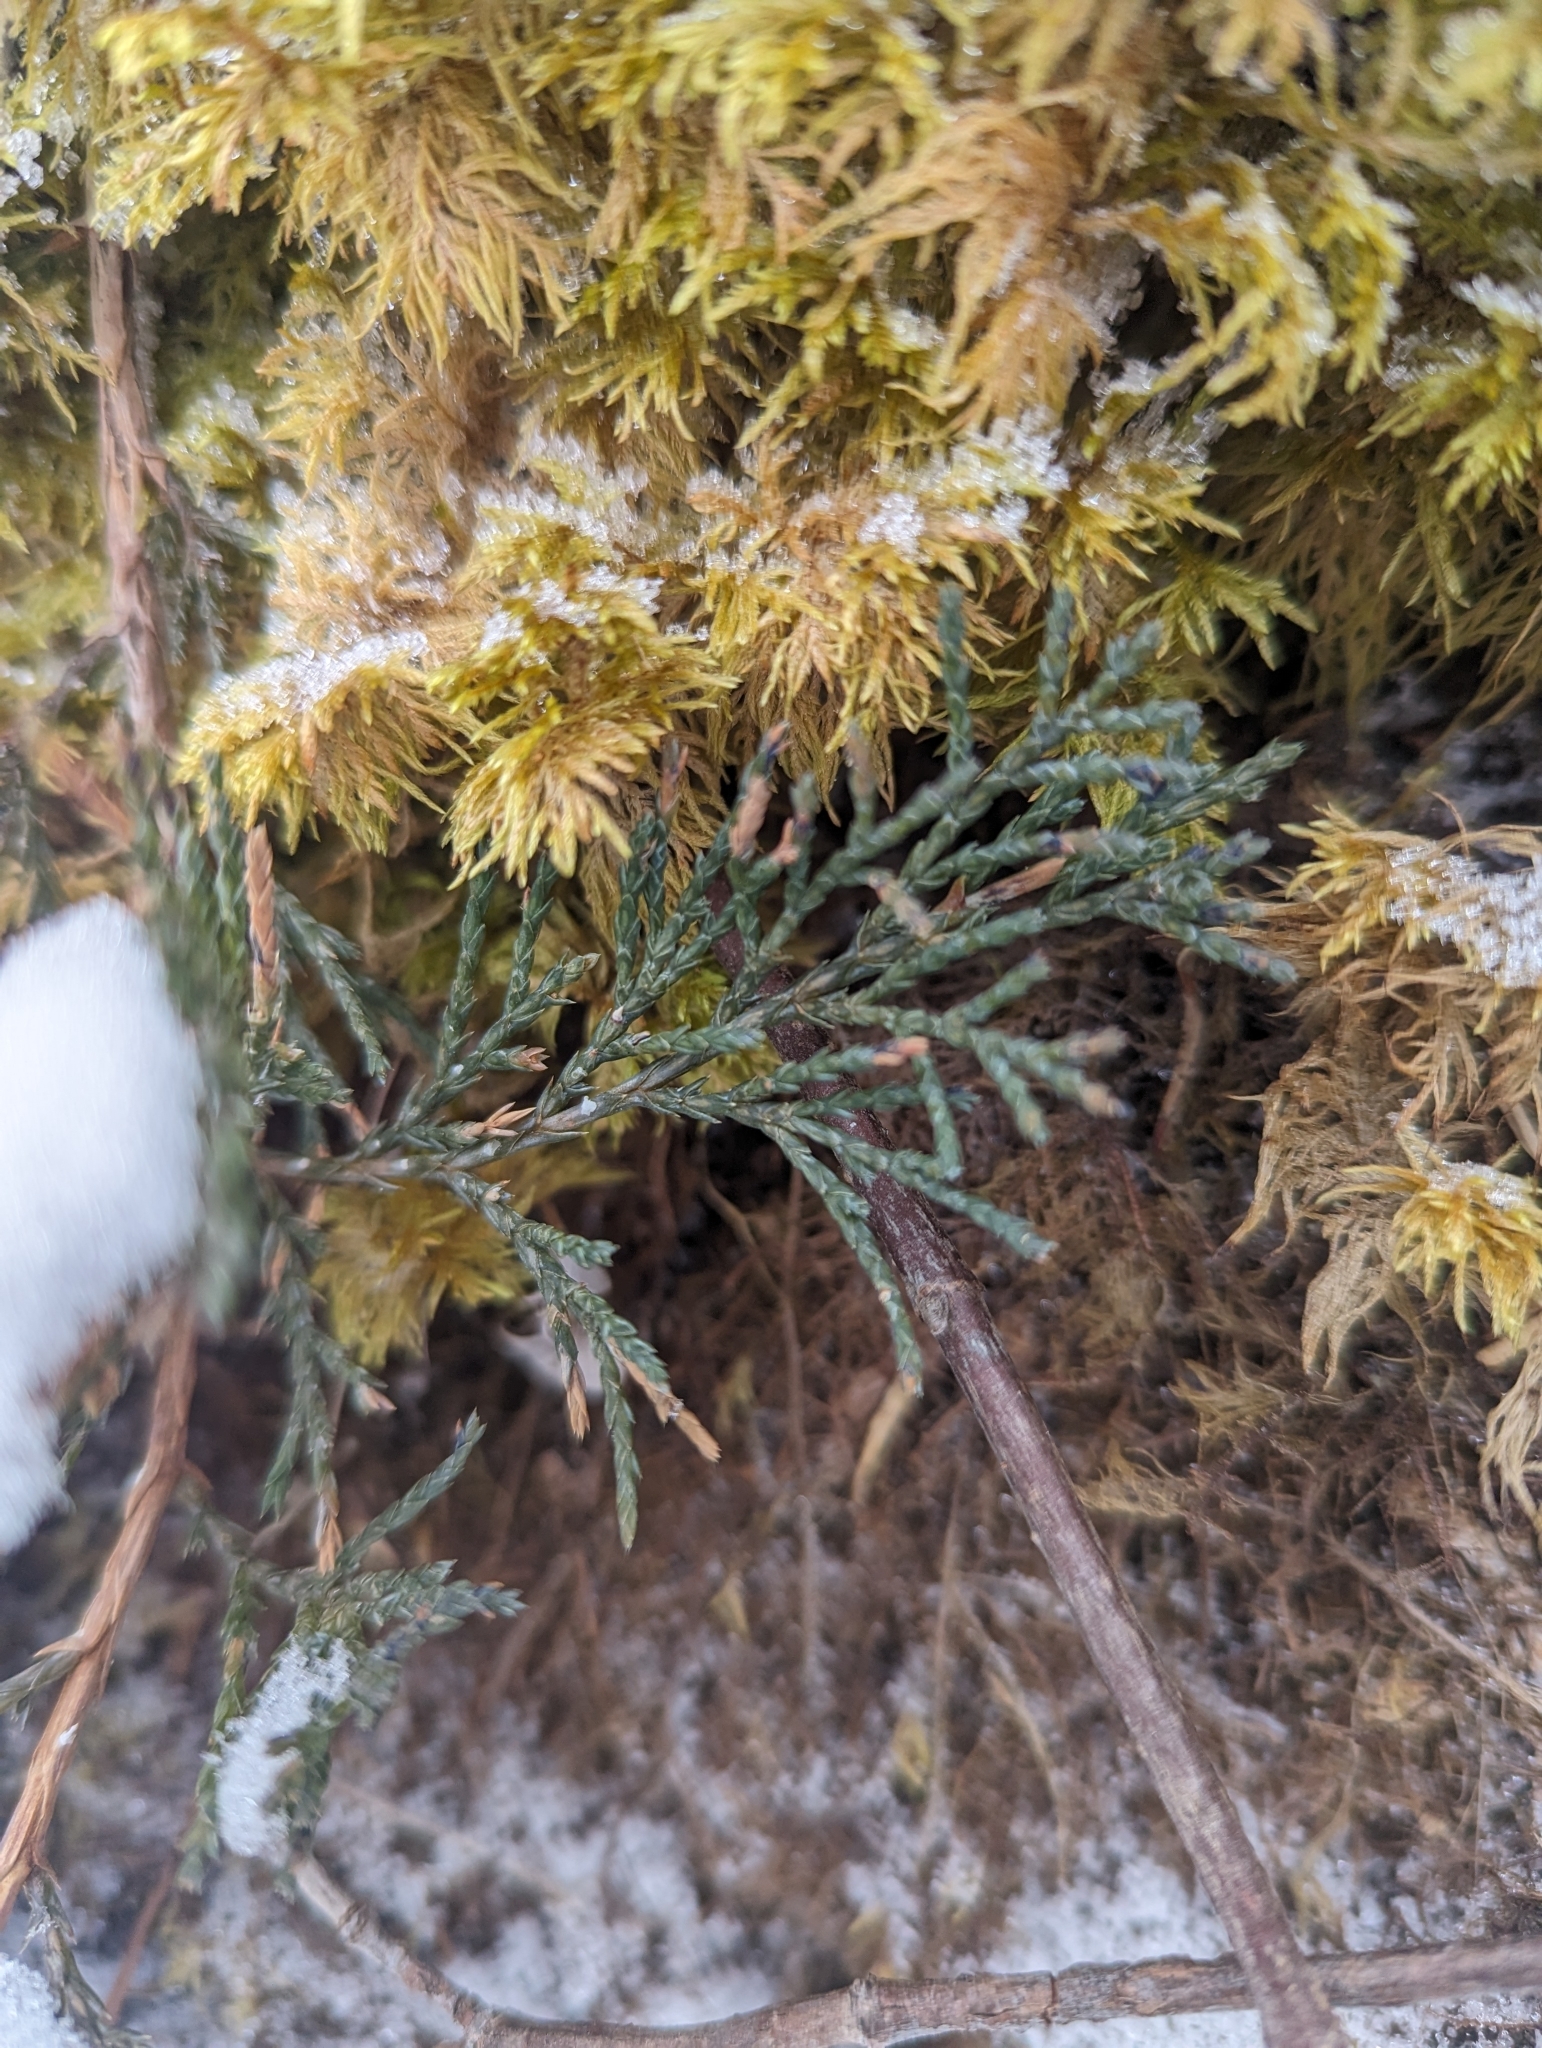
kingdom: Plantae
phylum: Tracheophyta
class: Pinopsida
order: Pinales
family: Cupressaceae
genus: Juniperus
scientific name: Juniperus horizontalis
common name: Creeping juniper
